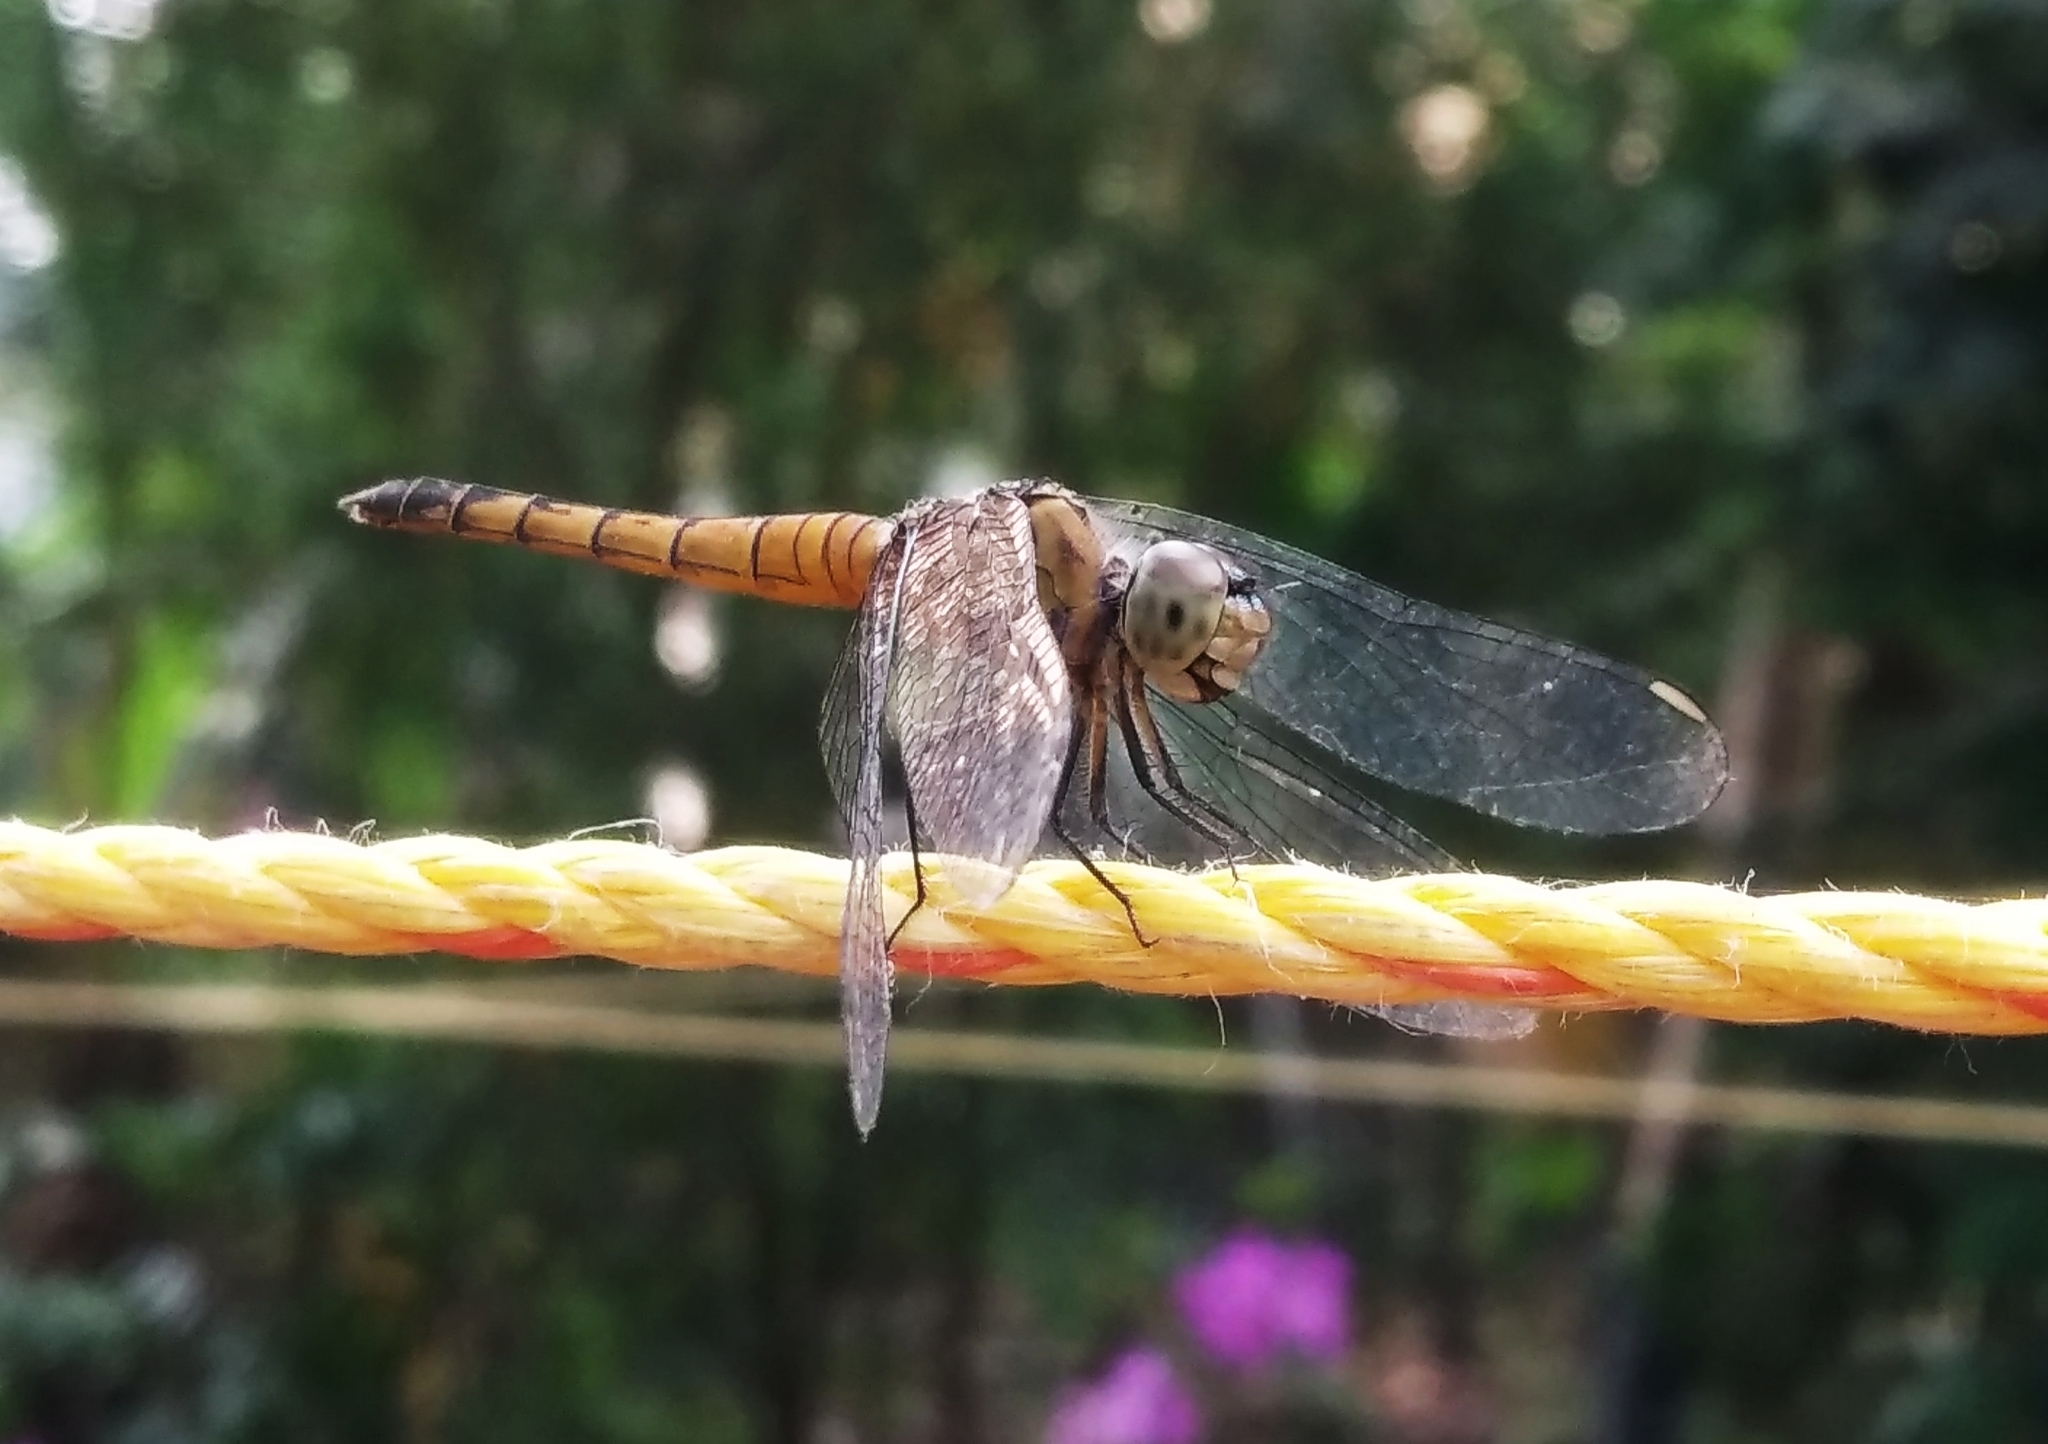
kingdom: Animalia
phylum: Arthropoda
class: Insecta
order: Odonata
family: Libellulidae
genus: Brachydiplax
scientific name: Brachydiplax chalybea
